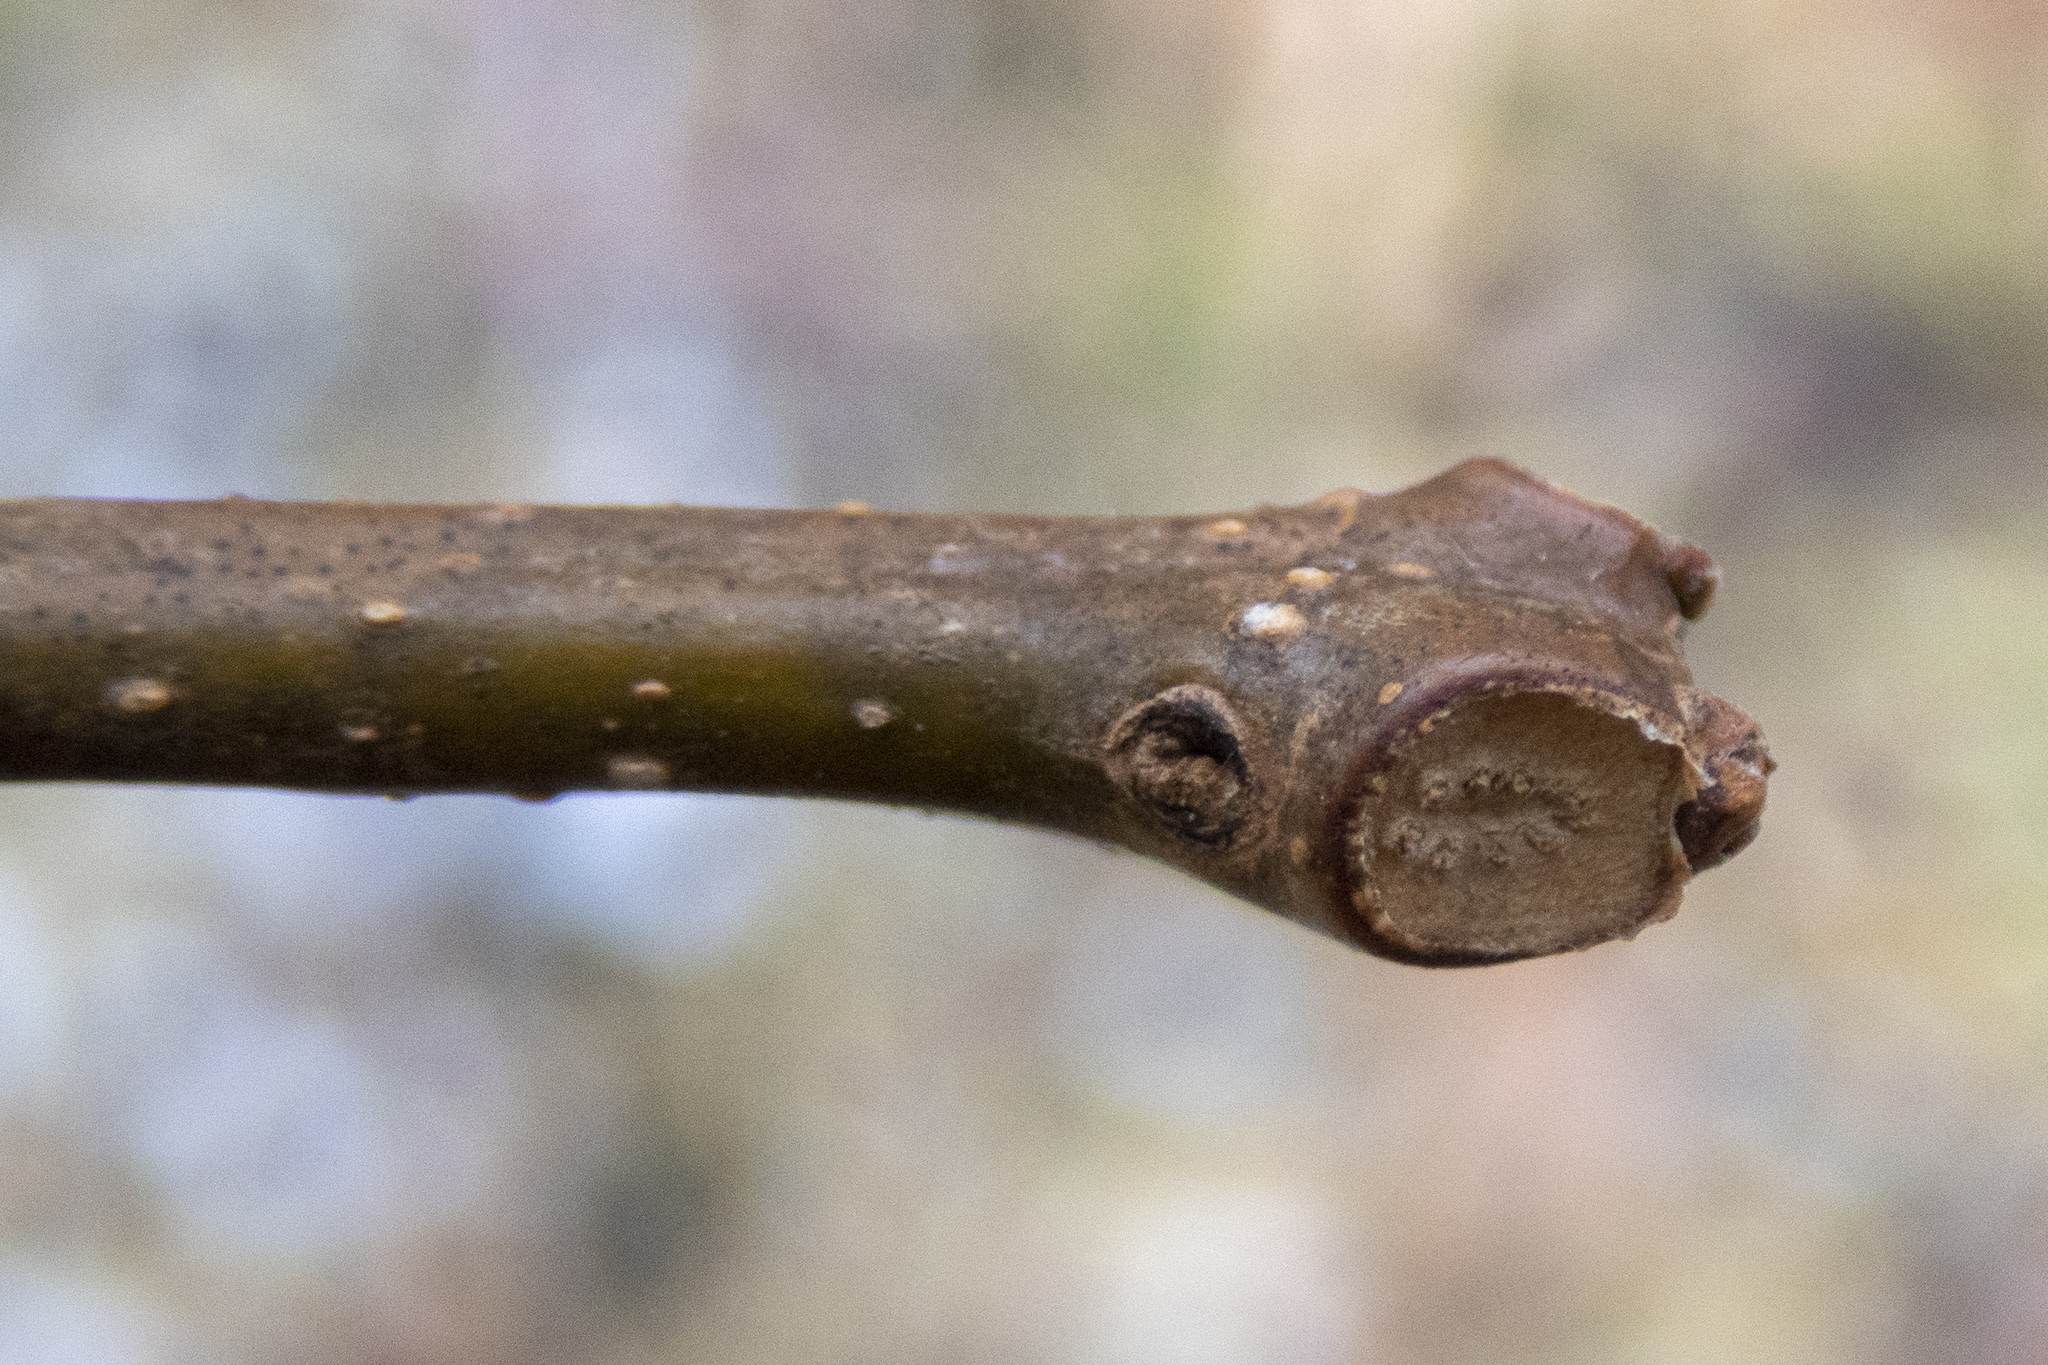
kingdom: Plantae
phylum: Tracheophyta
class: Magnoliopsida
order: Lamiales
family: Bignoniaceae
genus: Catalpa
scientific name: Catalpa
